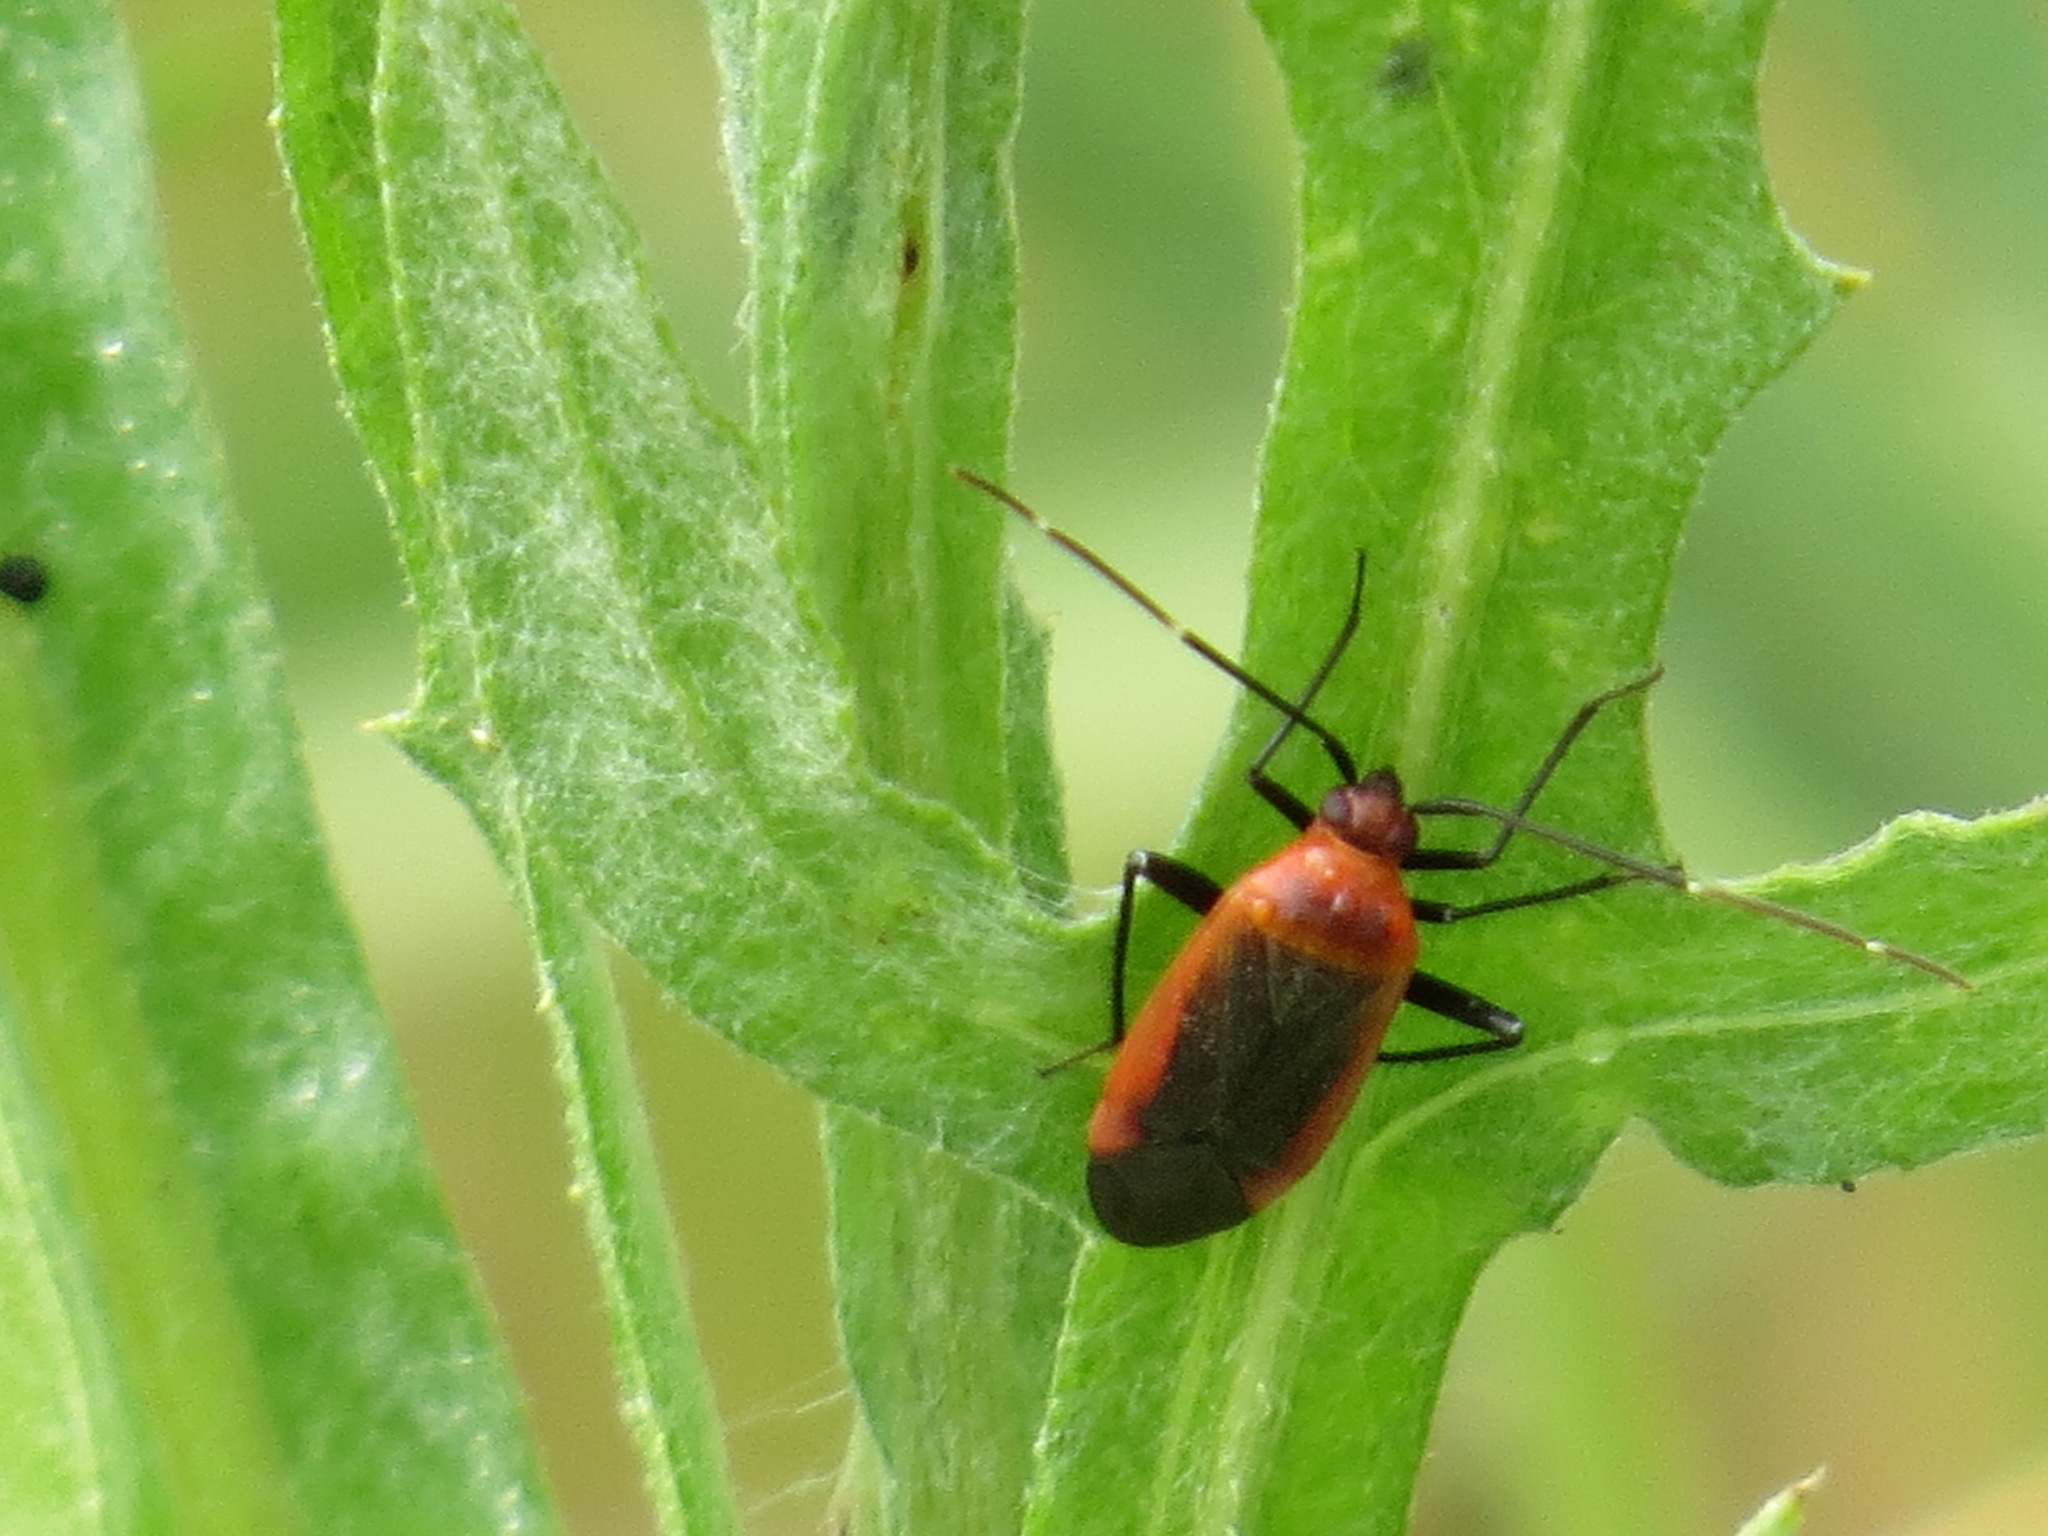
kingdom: Animalia
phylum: Arthropoda
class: Insecta
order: Hemiptera
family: Miridae
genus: Adelphocoris
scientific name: Adelphocoris rapidus
